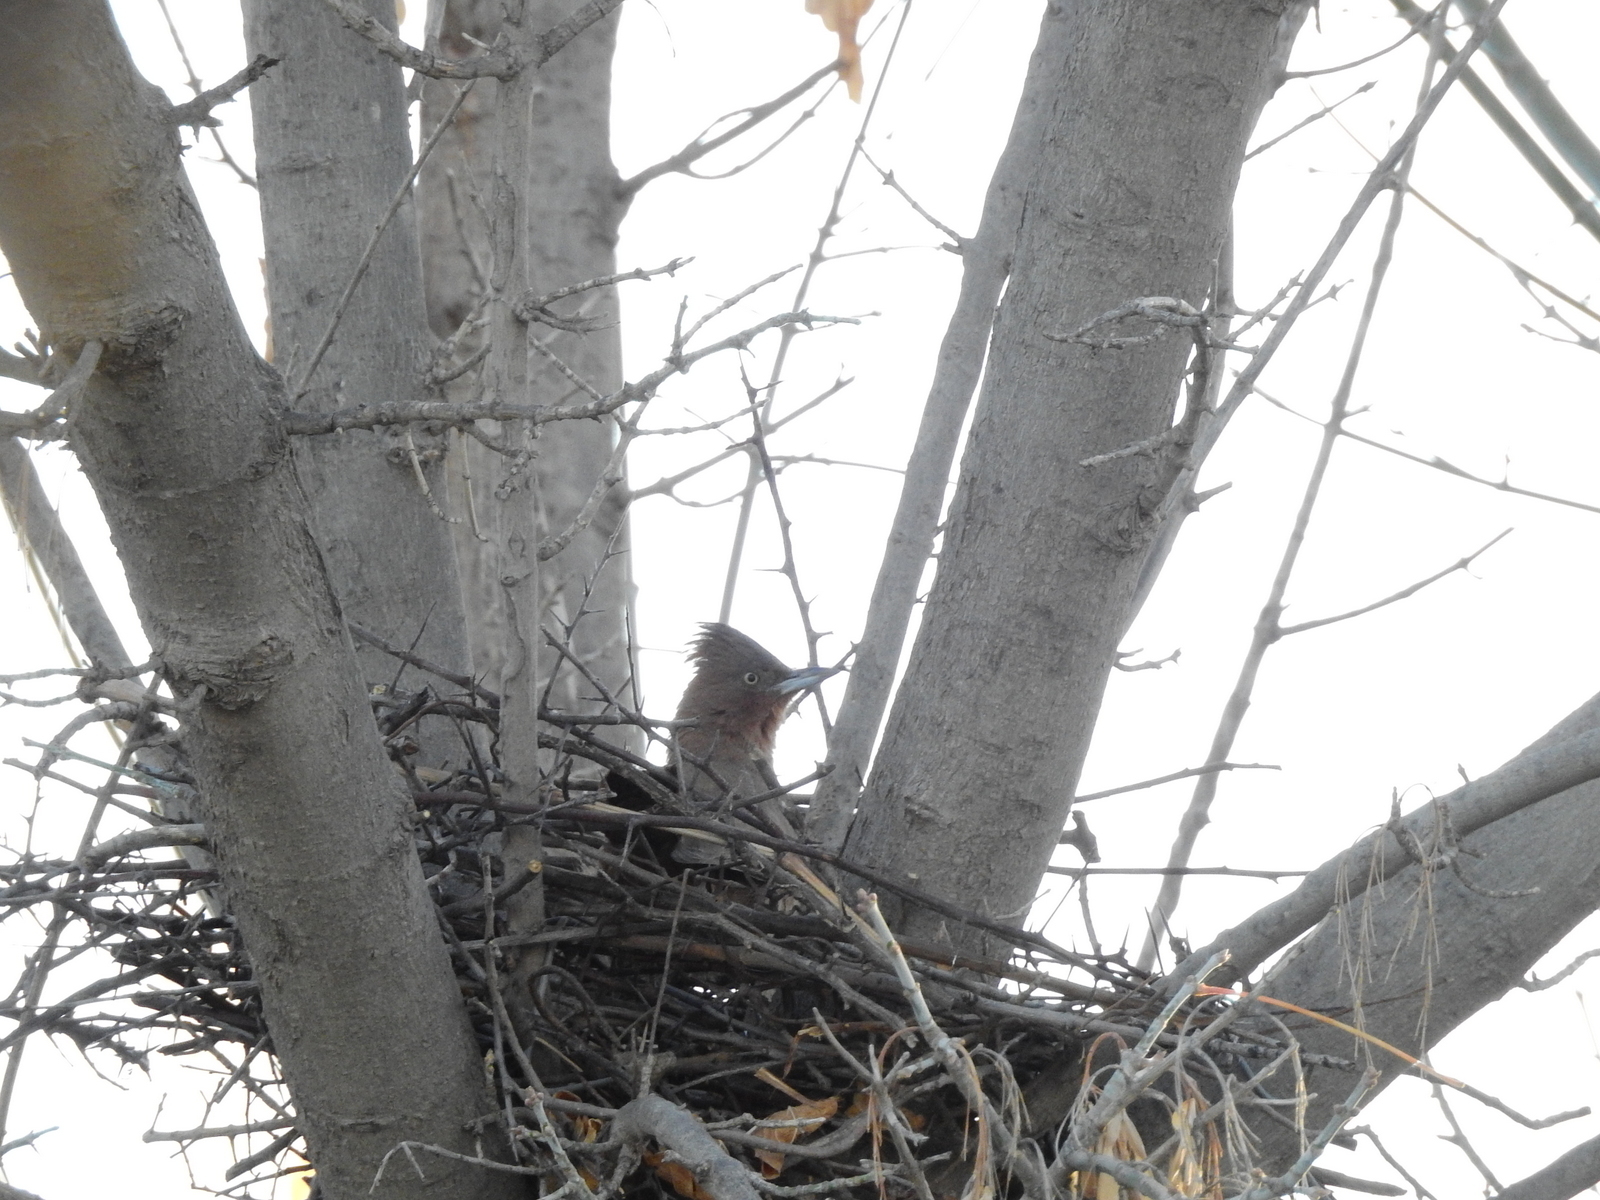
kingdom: Animalia
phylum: Chordata
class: Aves
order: Passeriformes
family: Furnariidae
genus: Pseudoseisura
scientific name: Pseudoseisura lophotes
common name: Brown cacholote
